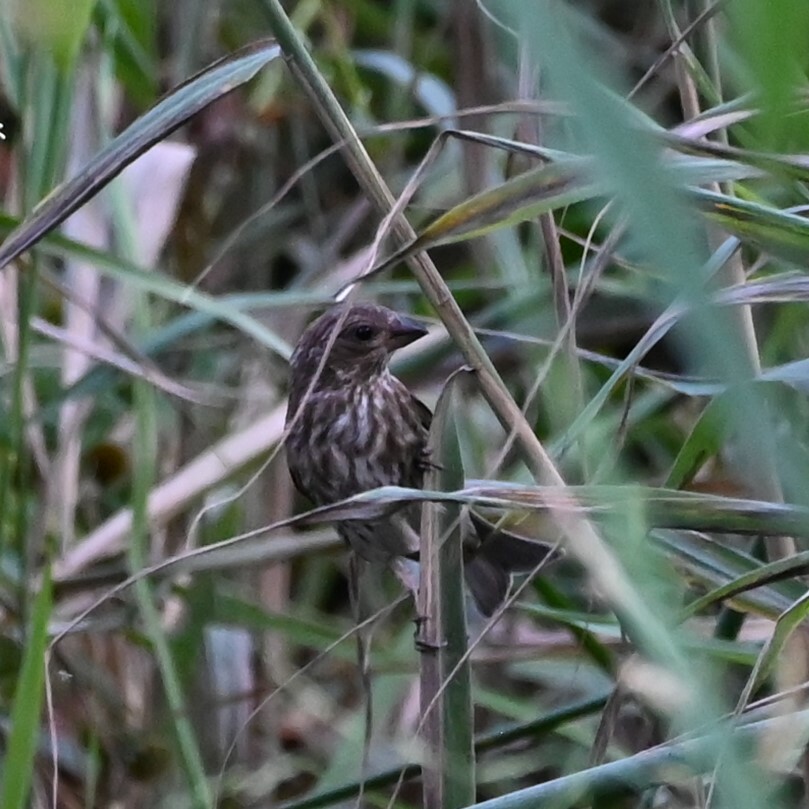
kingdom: Animalia
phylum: Chordata
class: Aves
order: Passeriformes
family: Fringillidae
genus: Haemorhous
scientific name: Haemorhous purpureus
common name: Purple finch
